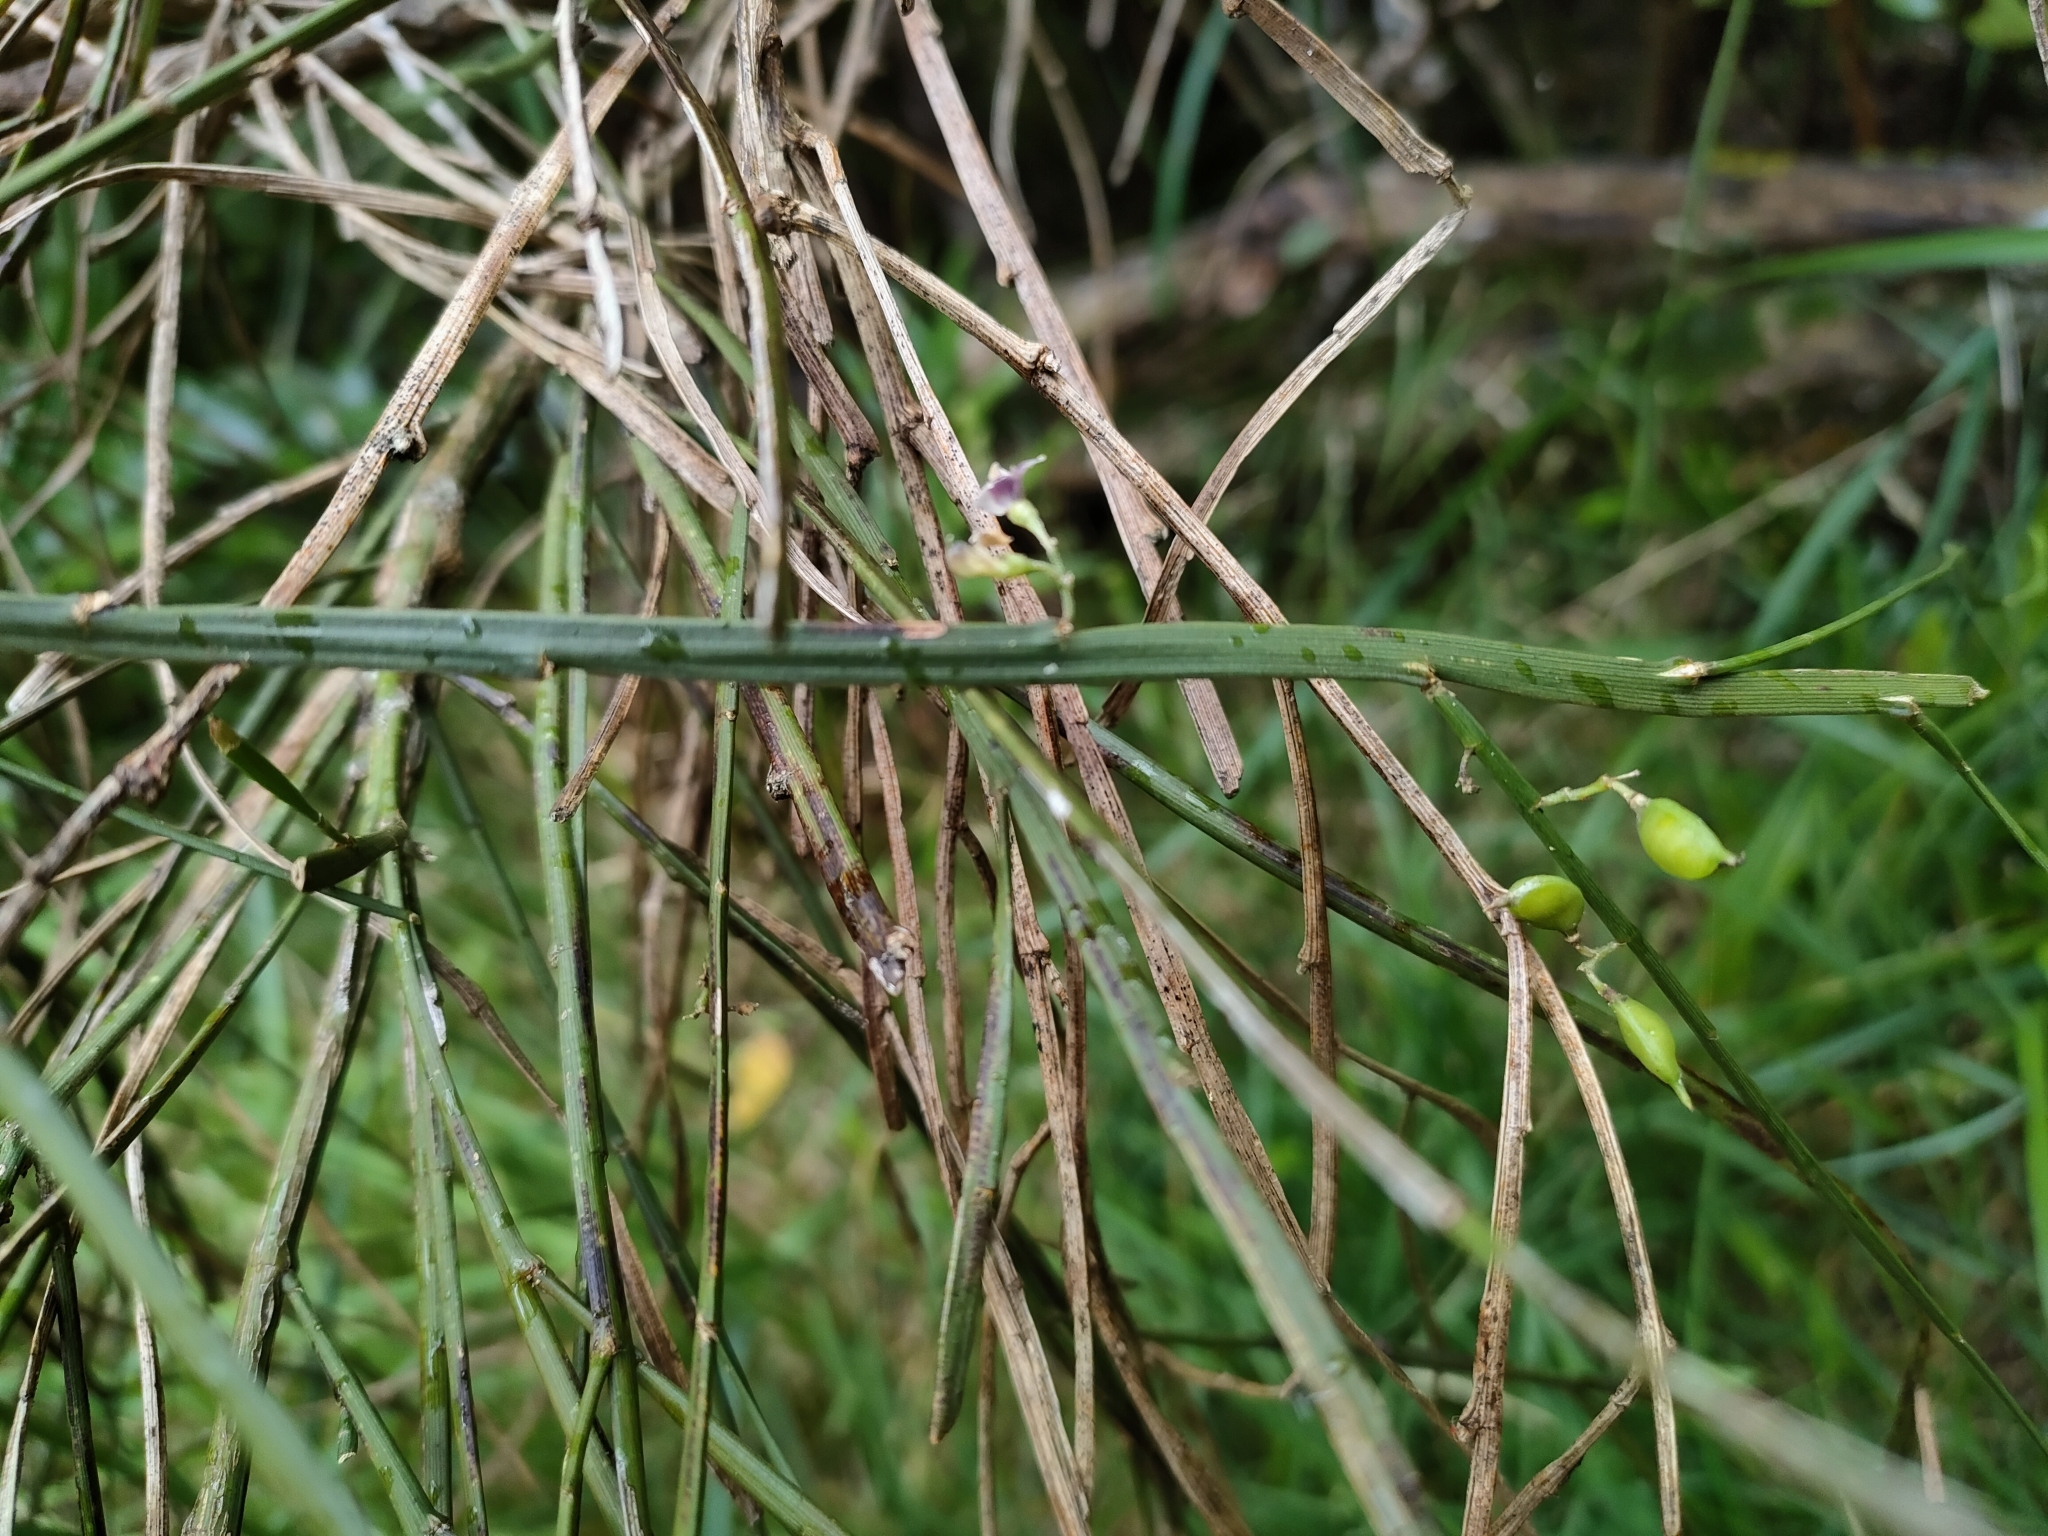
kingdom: Plantae
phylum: Tracheophyta
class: Magnoliopsida
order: Fabales
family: Fabaceae
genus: Carmichaelia
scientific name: Carmichaelia australis
